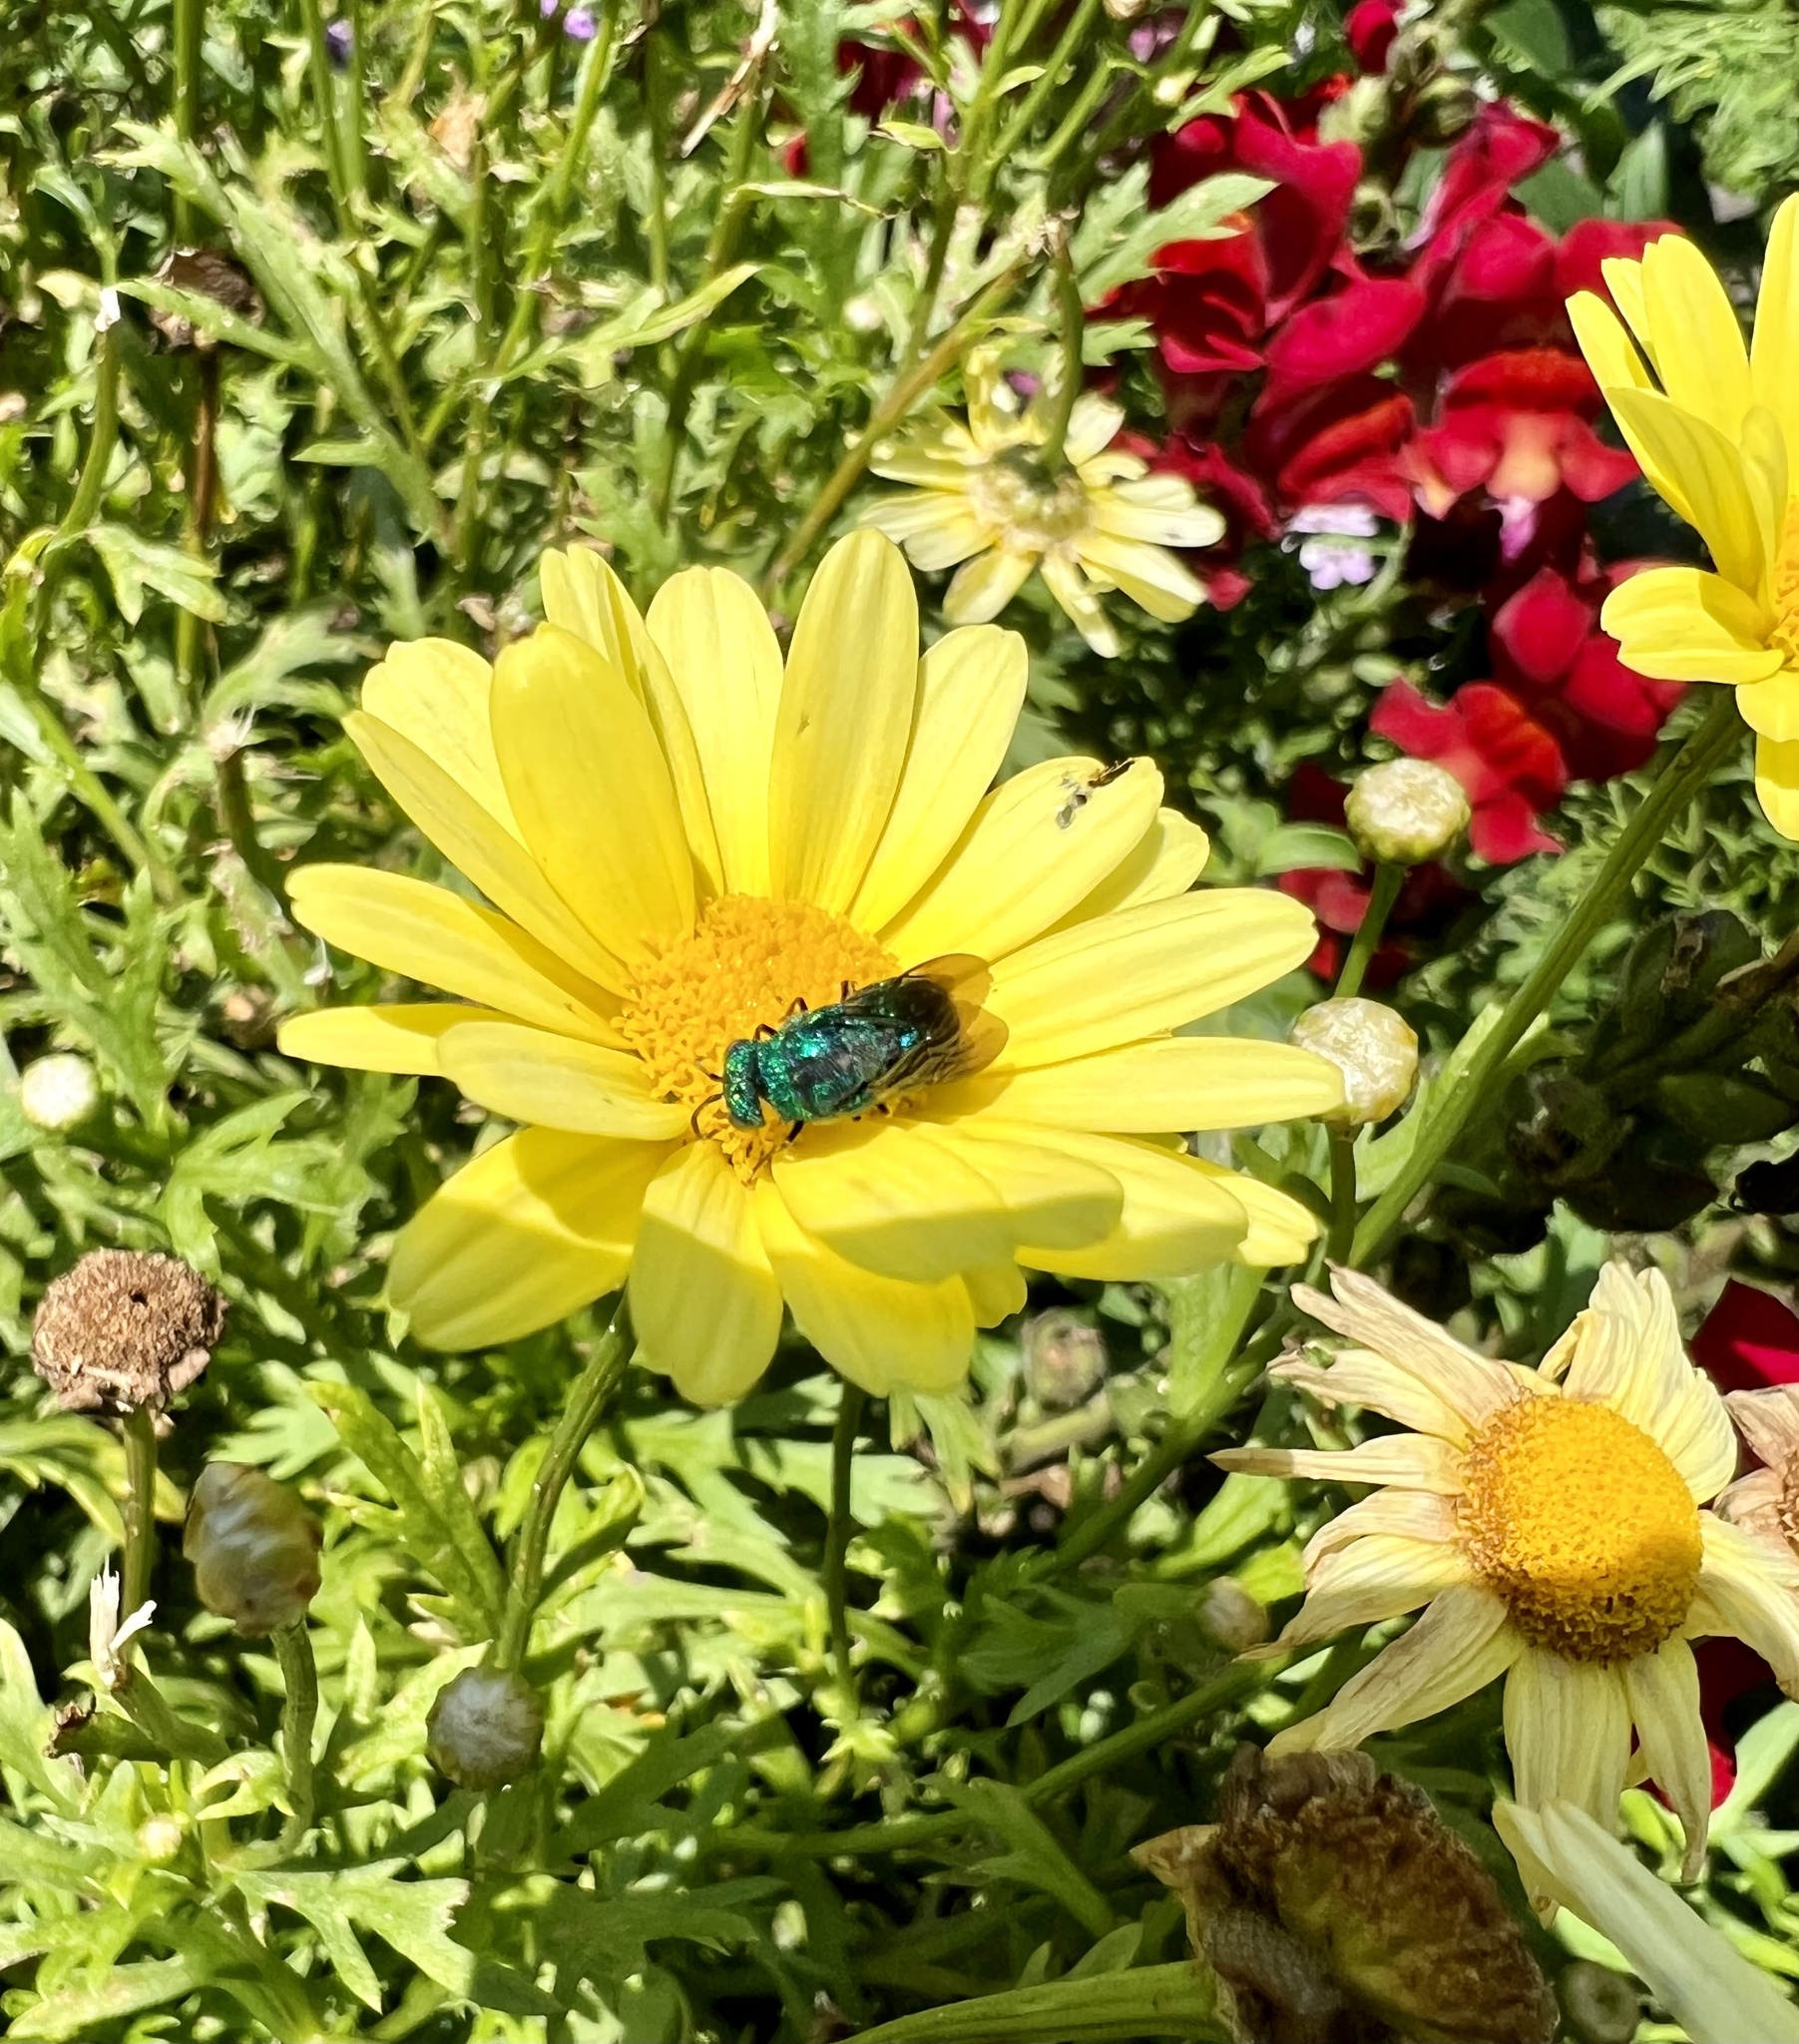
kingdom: Animalia
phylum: Arthropoda
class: Insecta
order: Hymenoptera
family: Chrysididae
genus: Parnopes
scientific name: Parnopes
